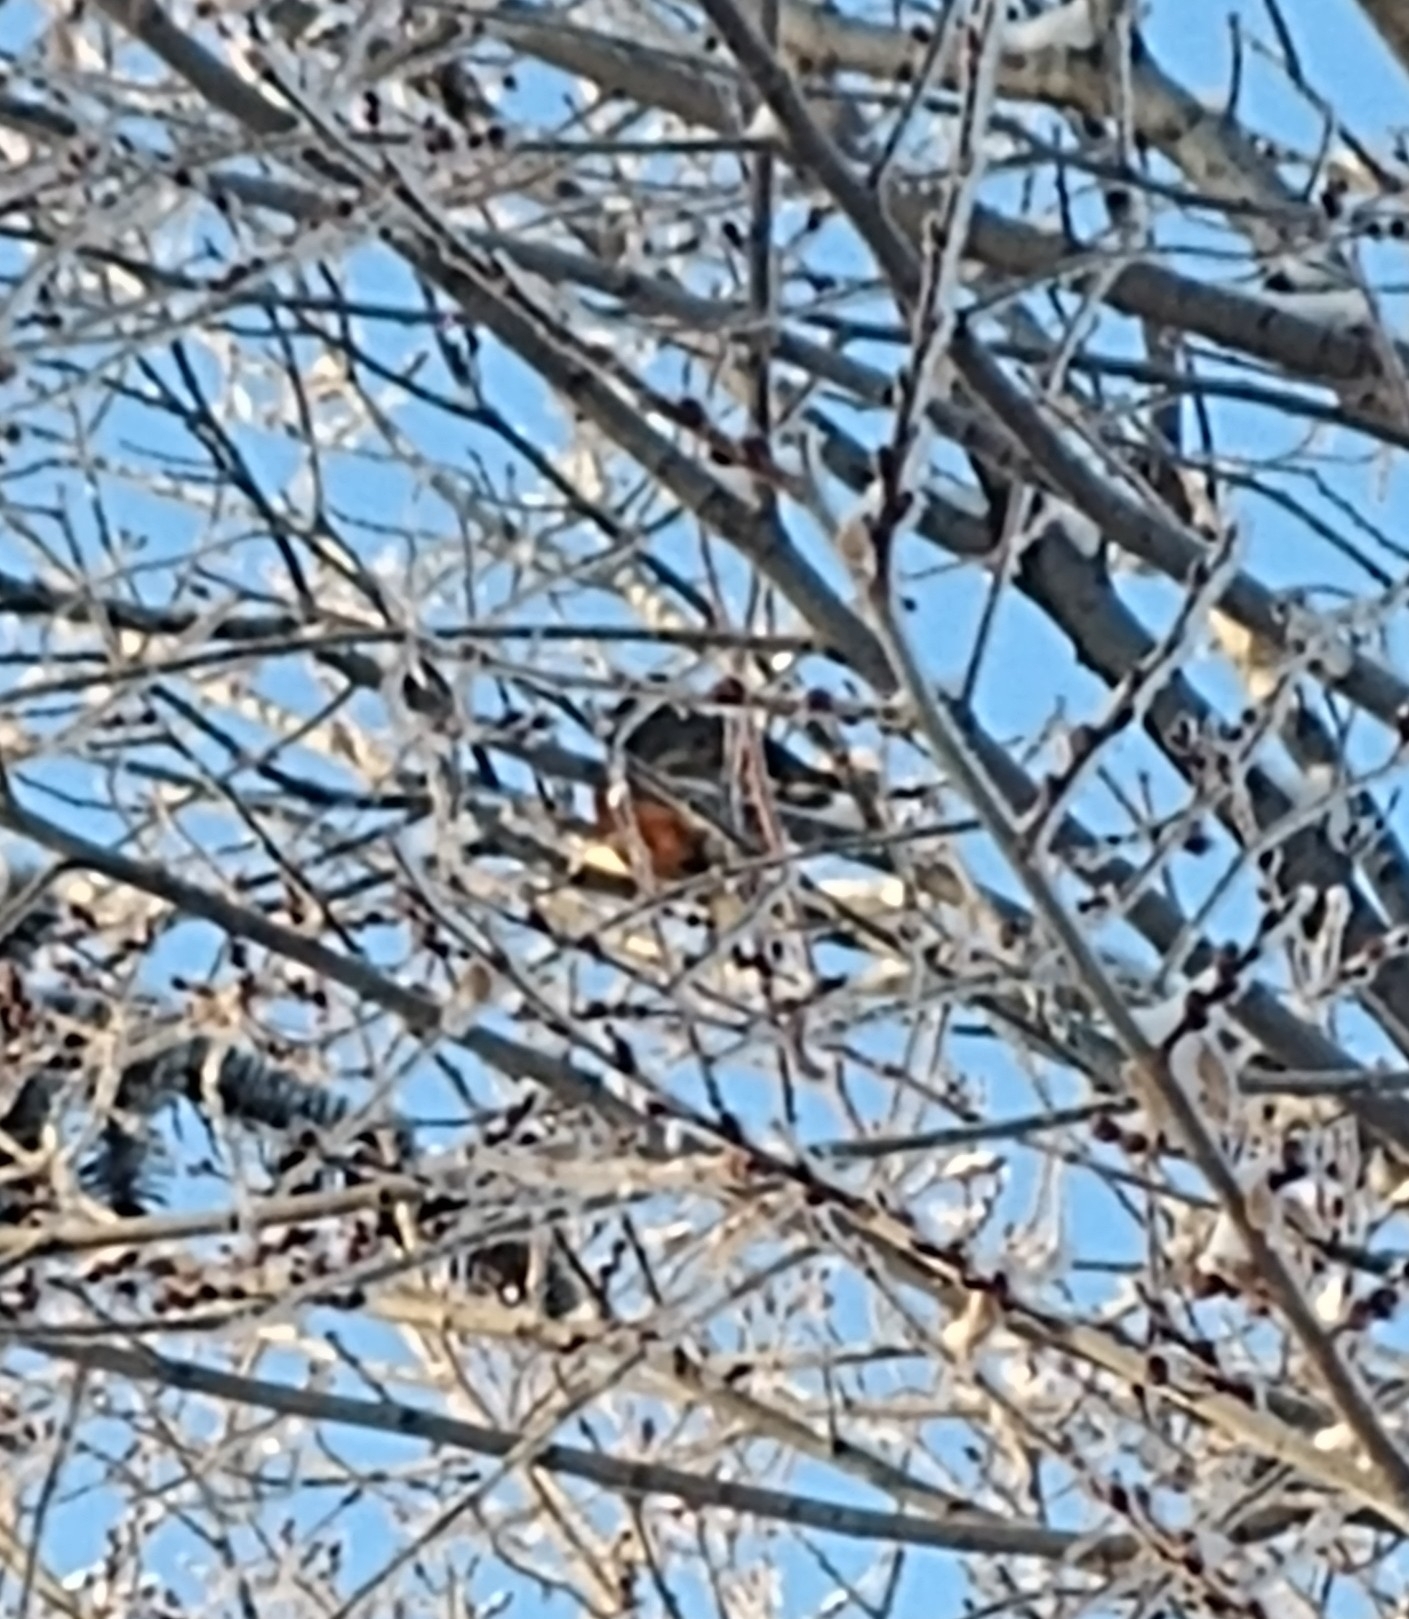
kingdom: Animalia
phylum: Chordata
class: Aves
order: Passeriformes
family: Turdidae
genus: Turdus
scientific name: Turdus migratorius
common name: American robin
